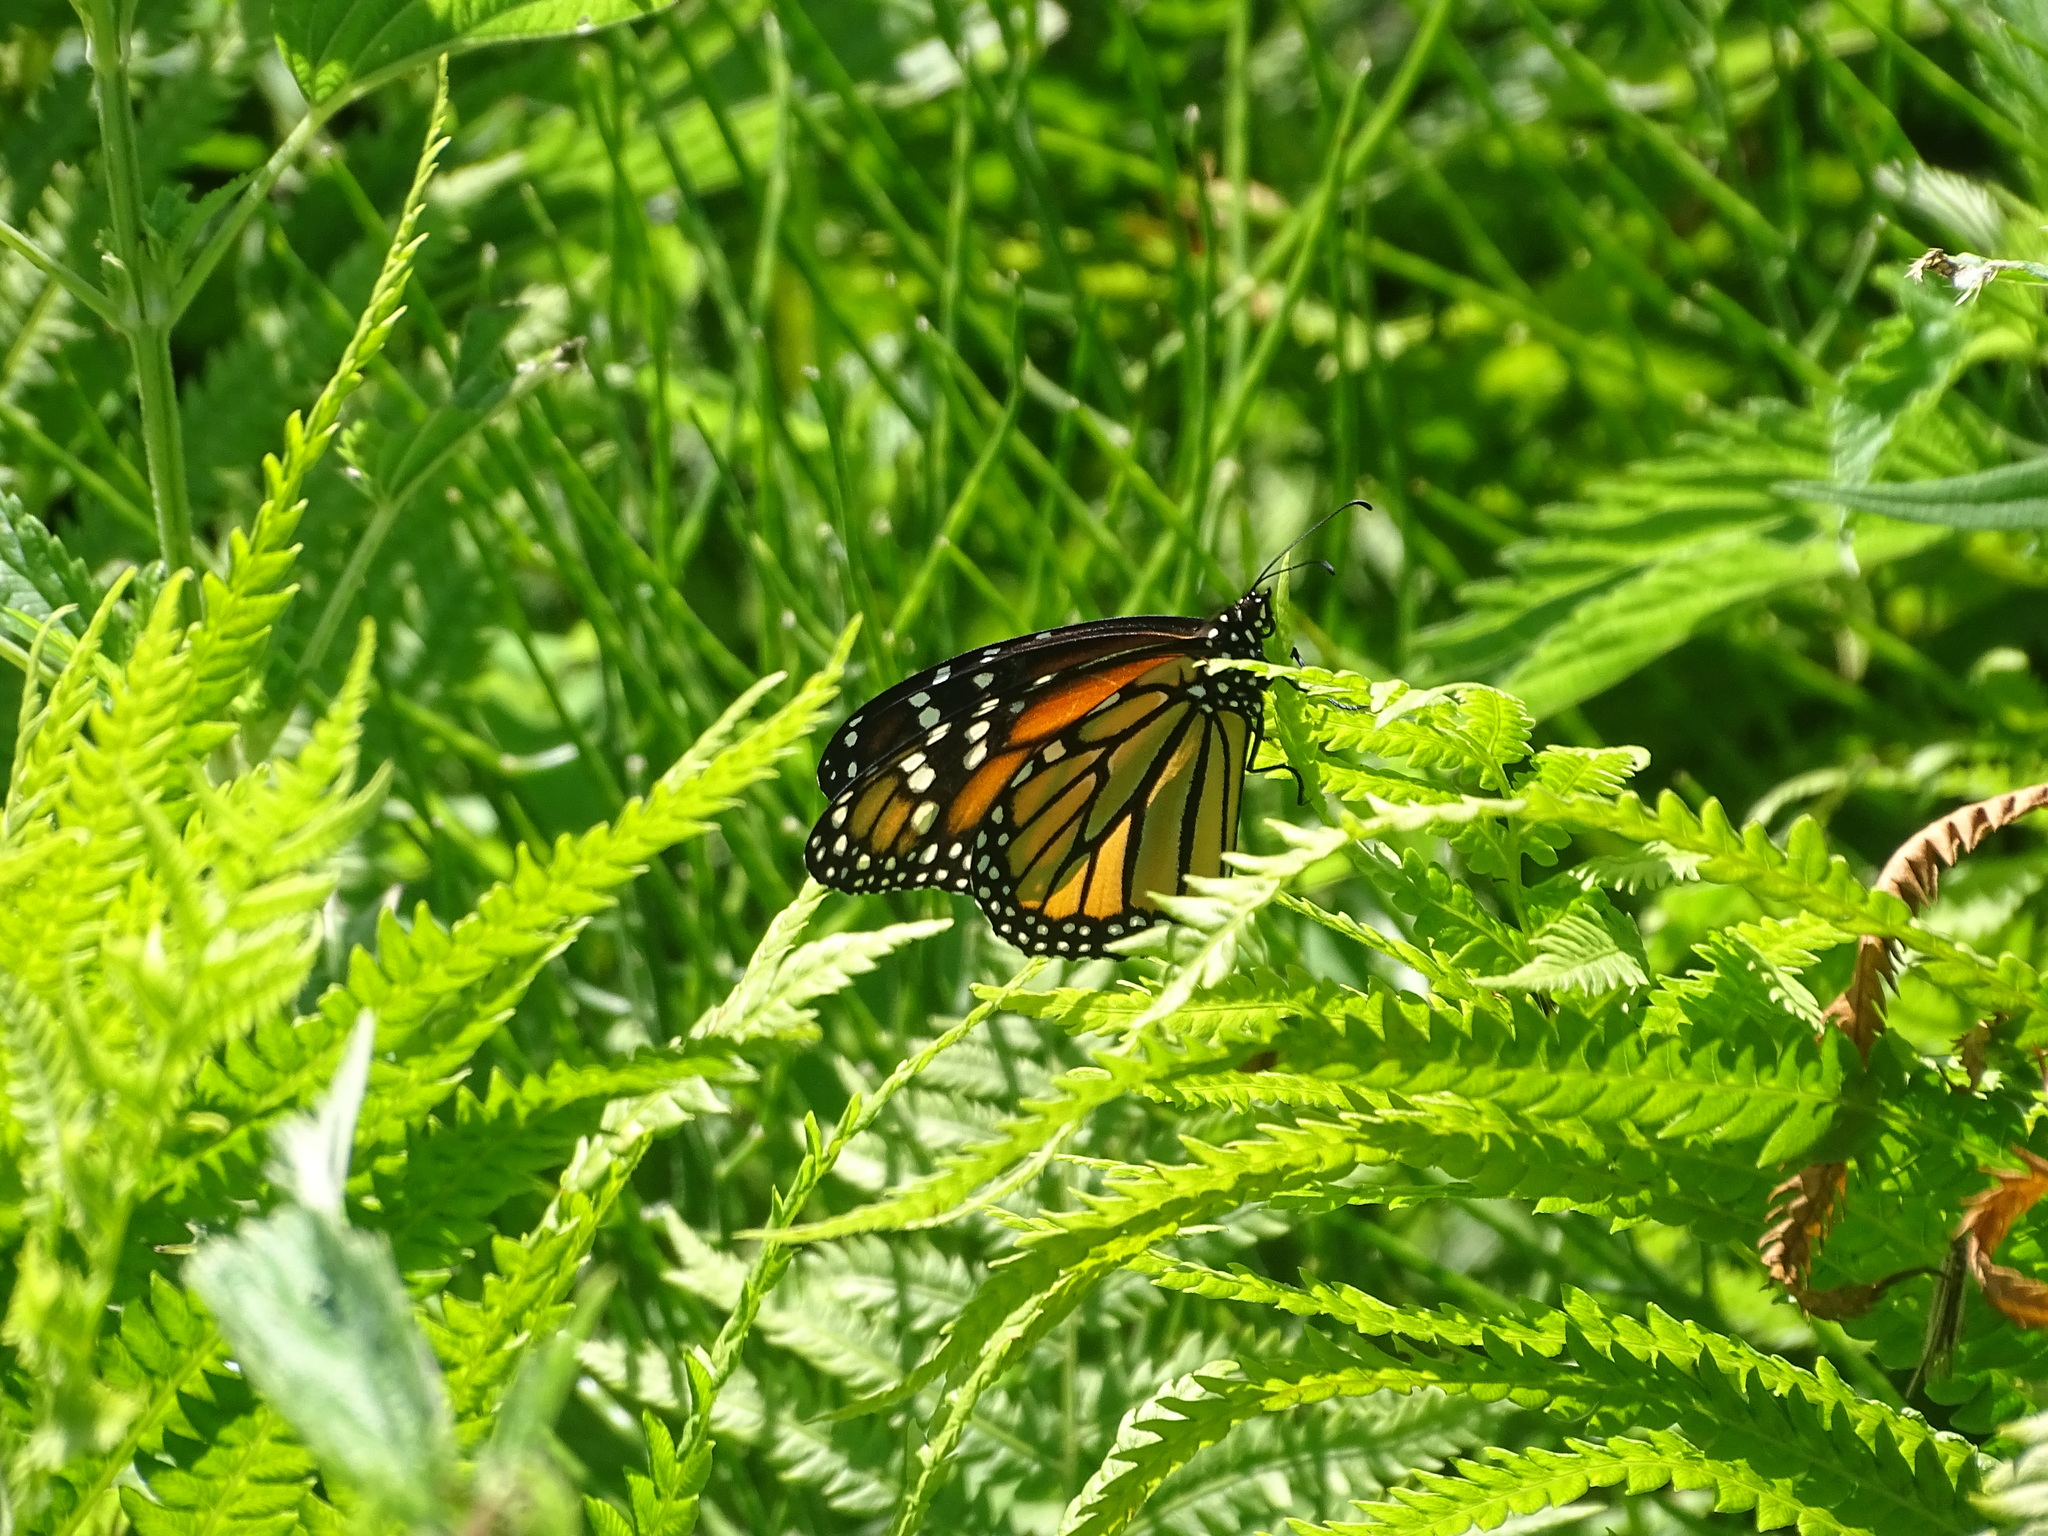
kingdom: Animalia
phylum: Arthropoda
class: Insecta
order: Lepidoptera
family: Nymphalidae
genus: Danaus
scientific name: Danaus plexippus
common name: Monarch
